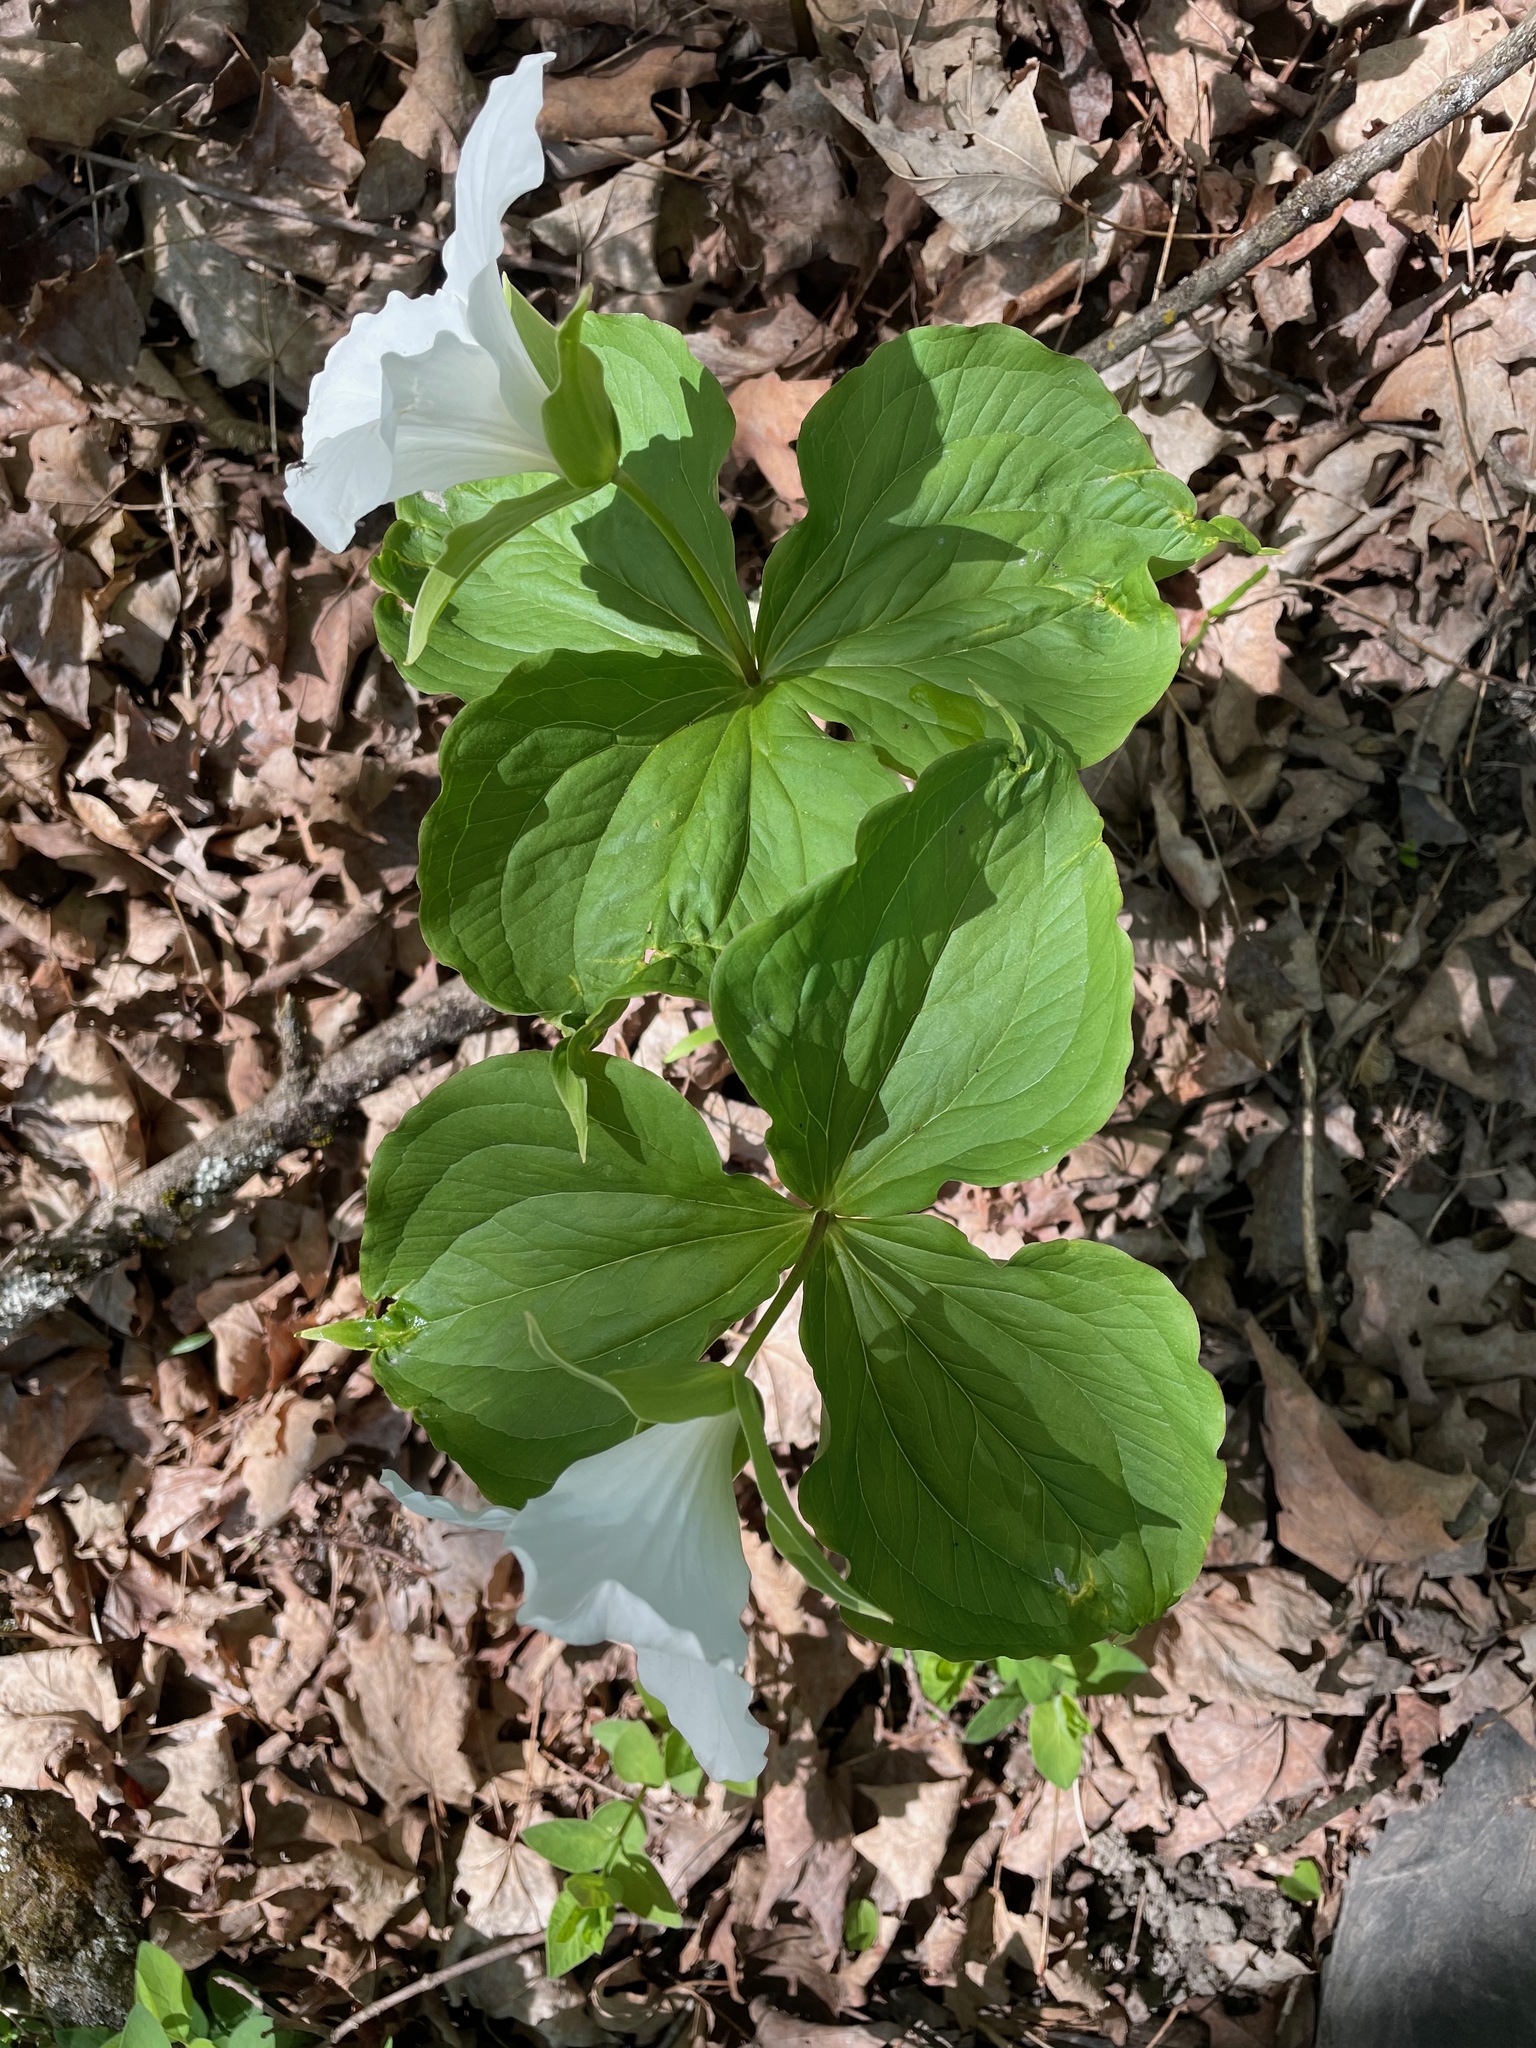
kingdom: Plantae
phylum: Tracheophyta
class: Liliopsida
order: Liliales
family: Melanthiaceae
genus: Trillium
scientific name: Trillium grandiflorum
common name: Great white trillium
